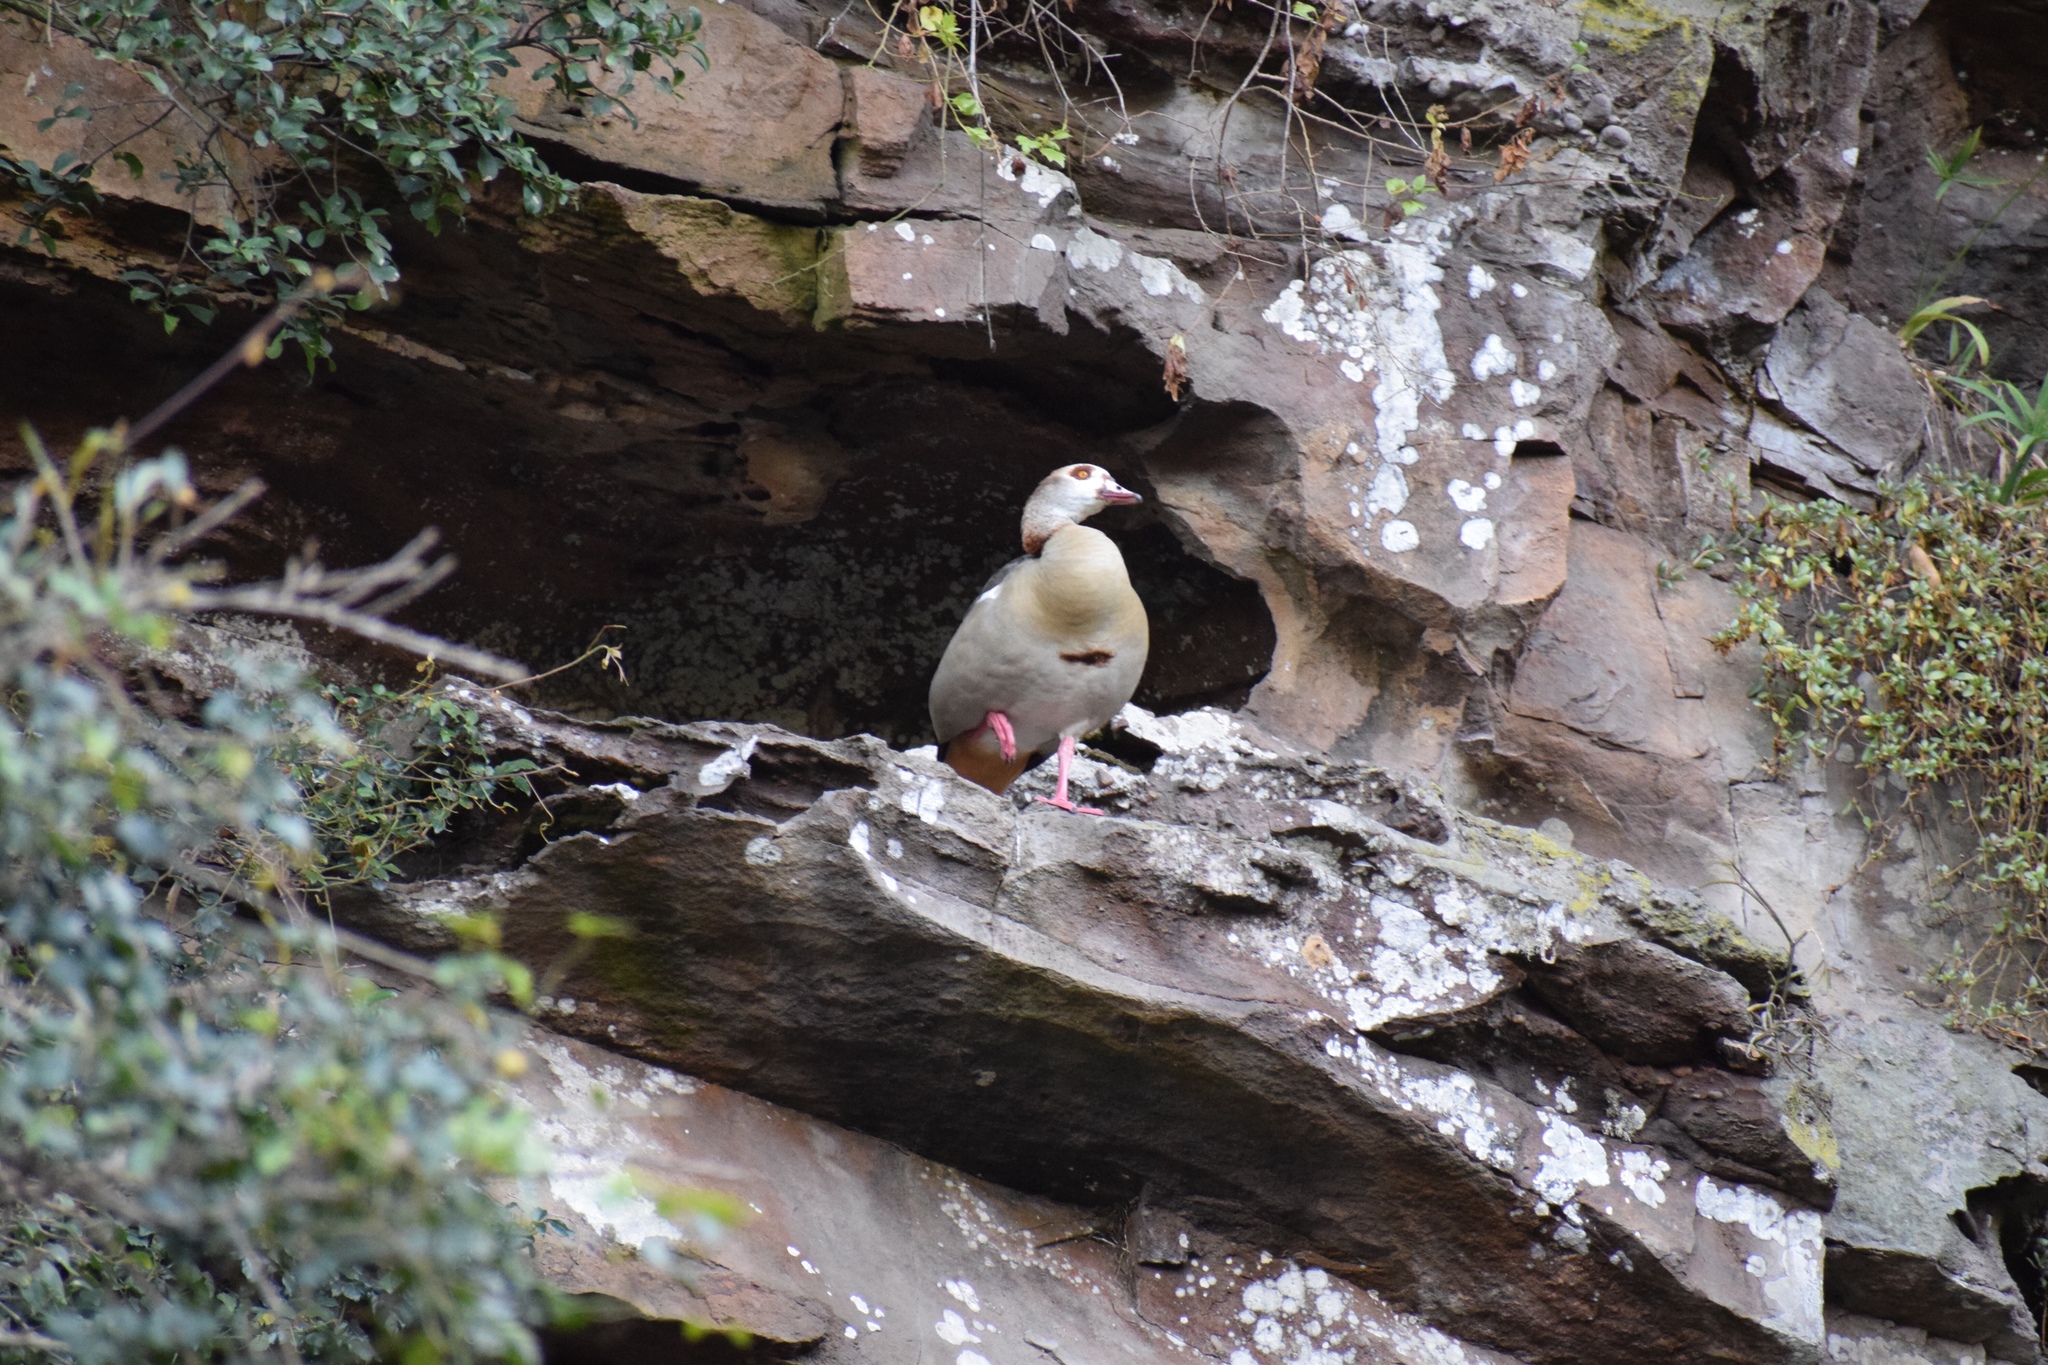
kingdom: Animalia
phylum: Chordata
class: Aves
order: Anseriformes
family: Anatidae
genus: Alopochen
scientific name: Alopochen aegyptiaca
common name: Egyptian goose
